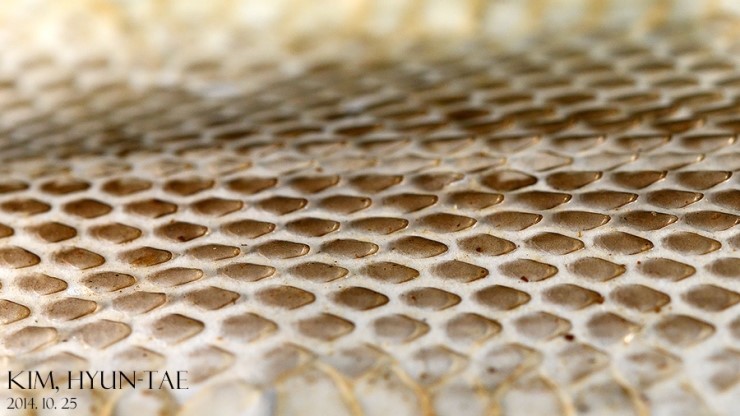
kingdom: Animalia
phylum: Chordata
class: Squamata
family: Colubridae
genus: Orientocoluber
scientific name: Orientocoluber spinalis
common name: Slender racer
